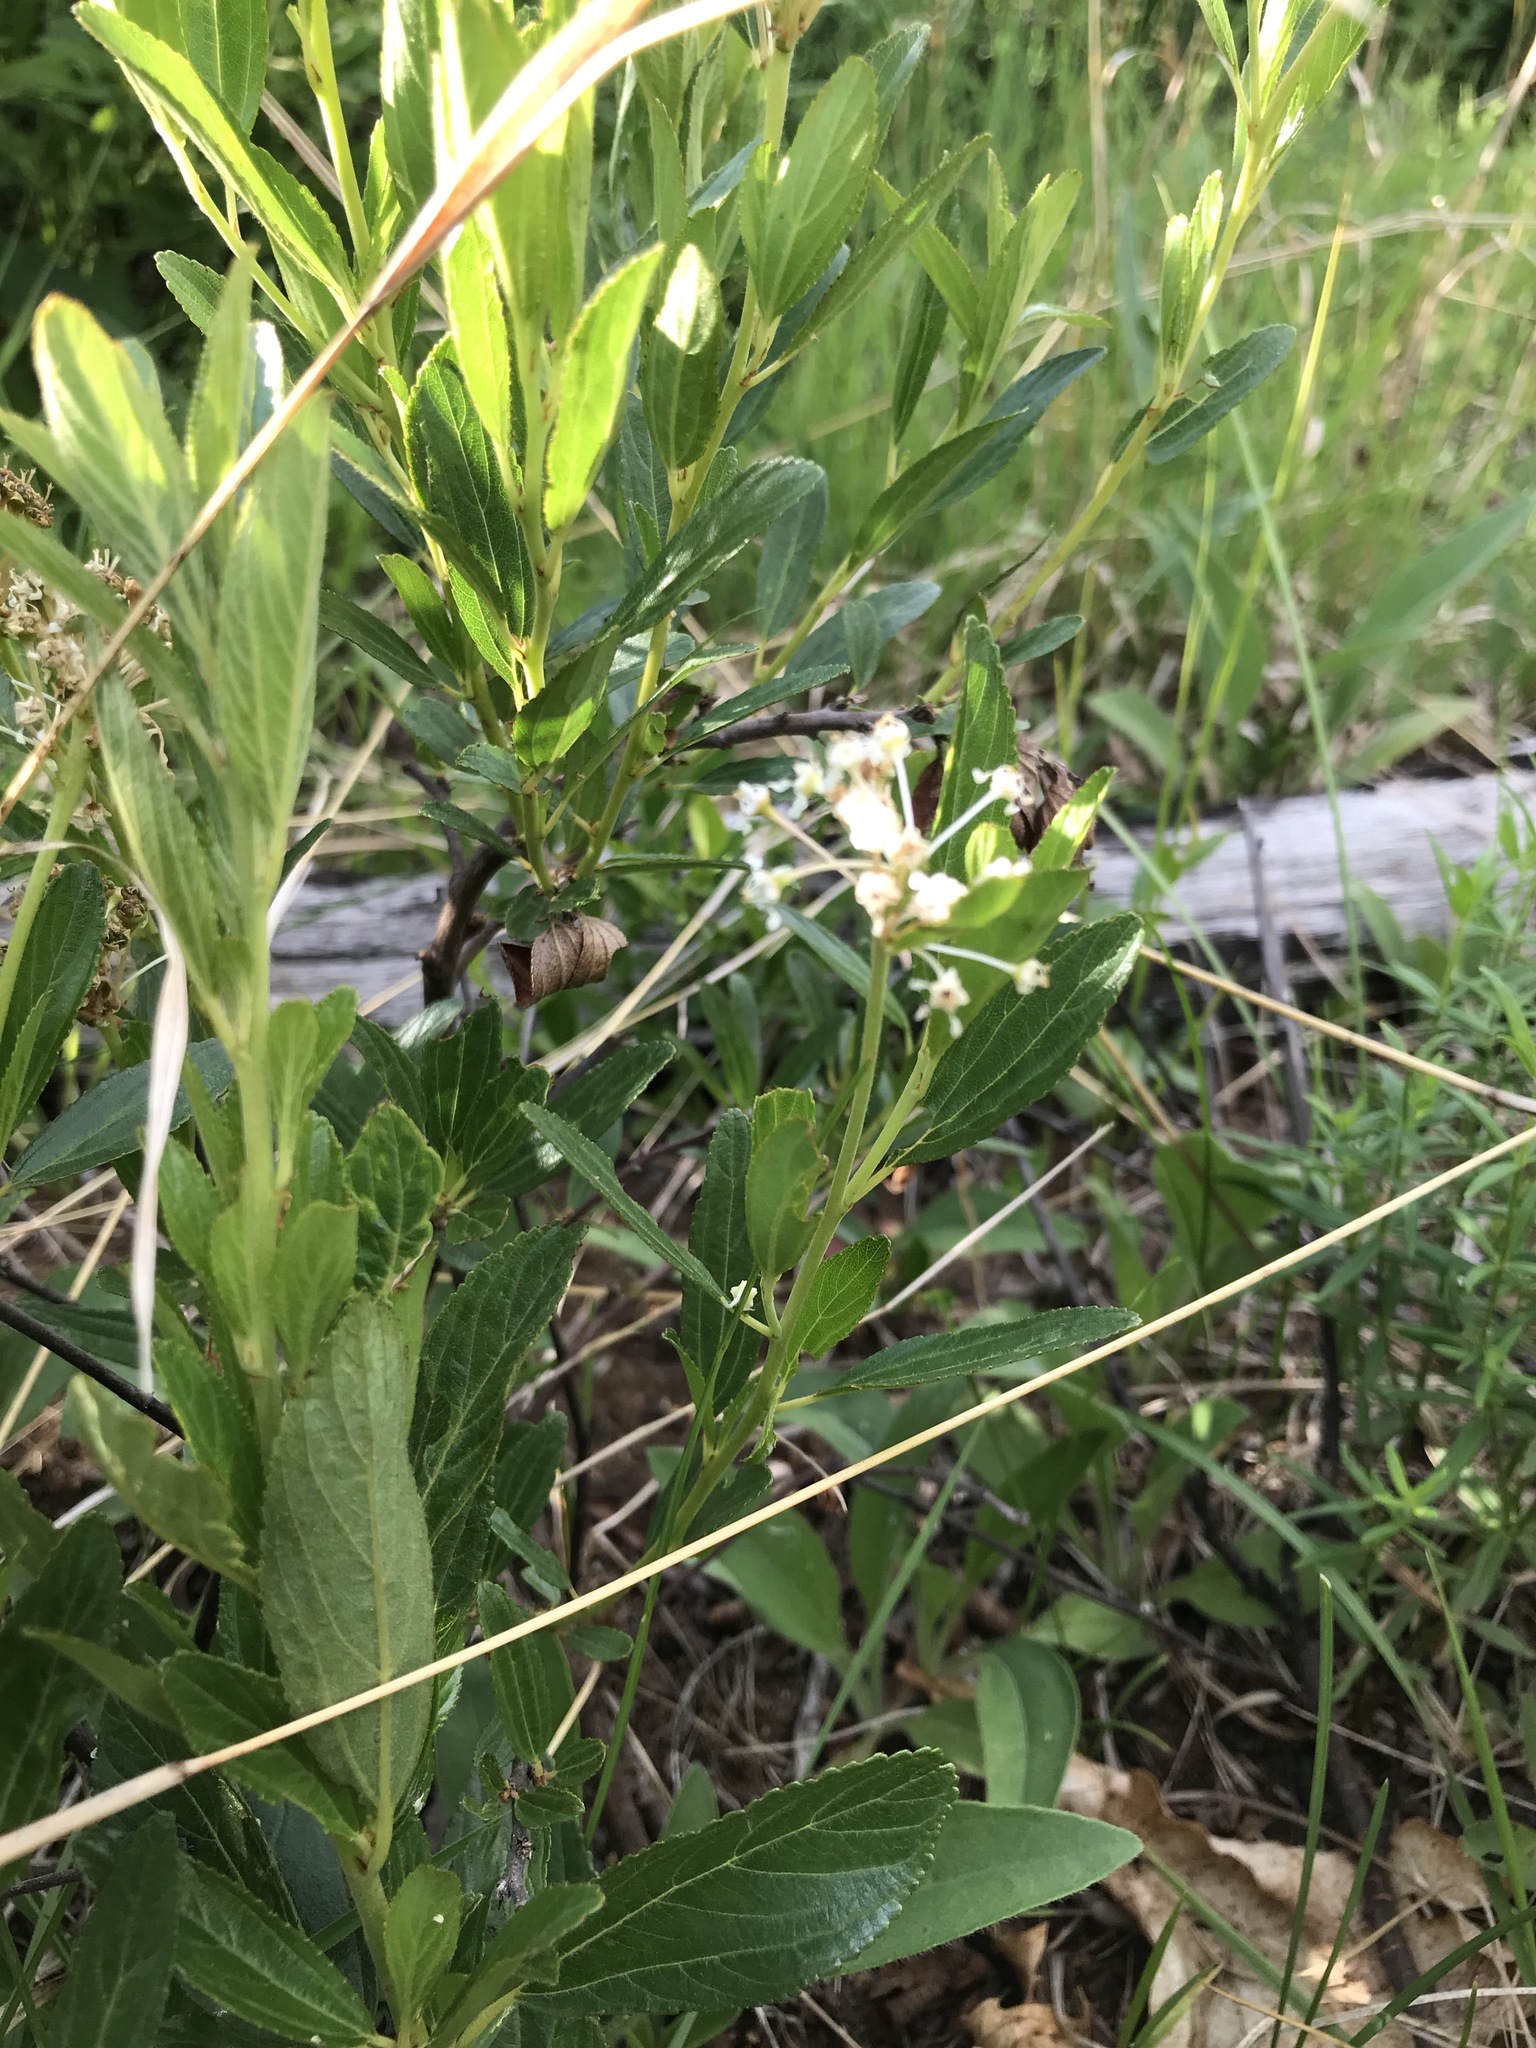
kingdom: Plantae
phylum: Tracheophyta
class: Magnoliopsida
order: Rosales
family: Rhamnaceae
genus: Ceanothus
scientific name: Ceanothus herbaceus
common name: Inland ceanothus
